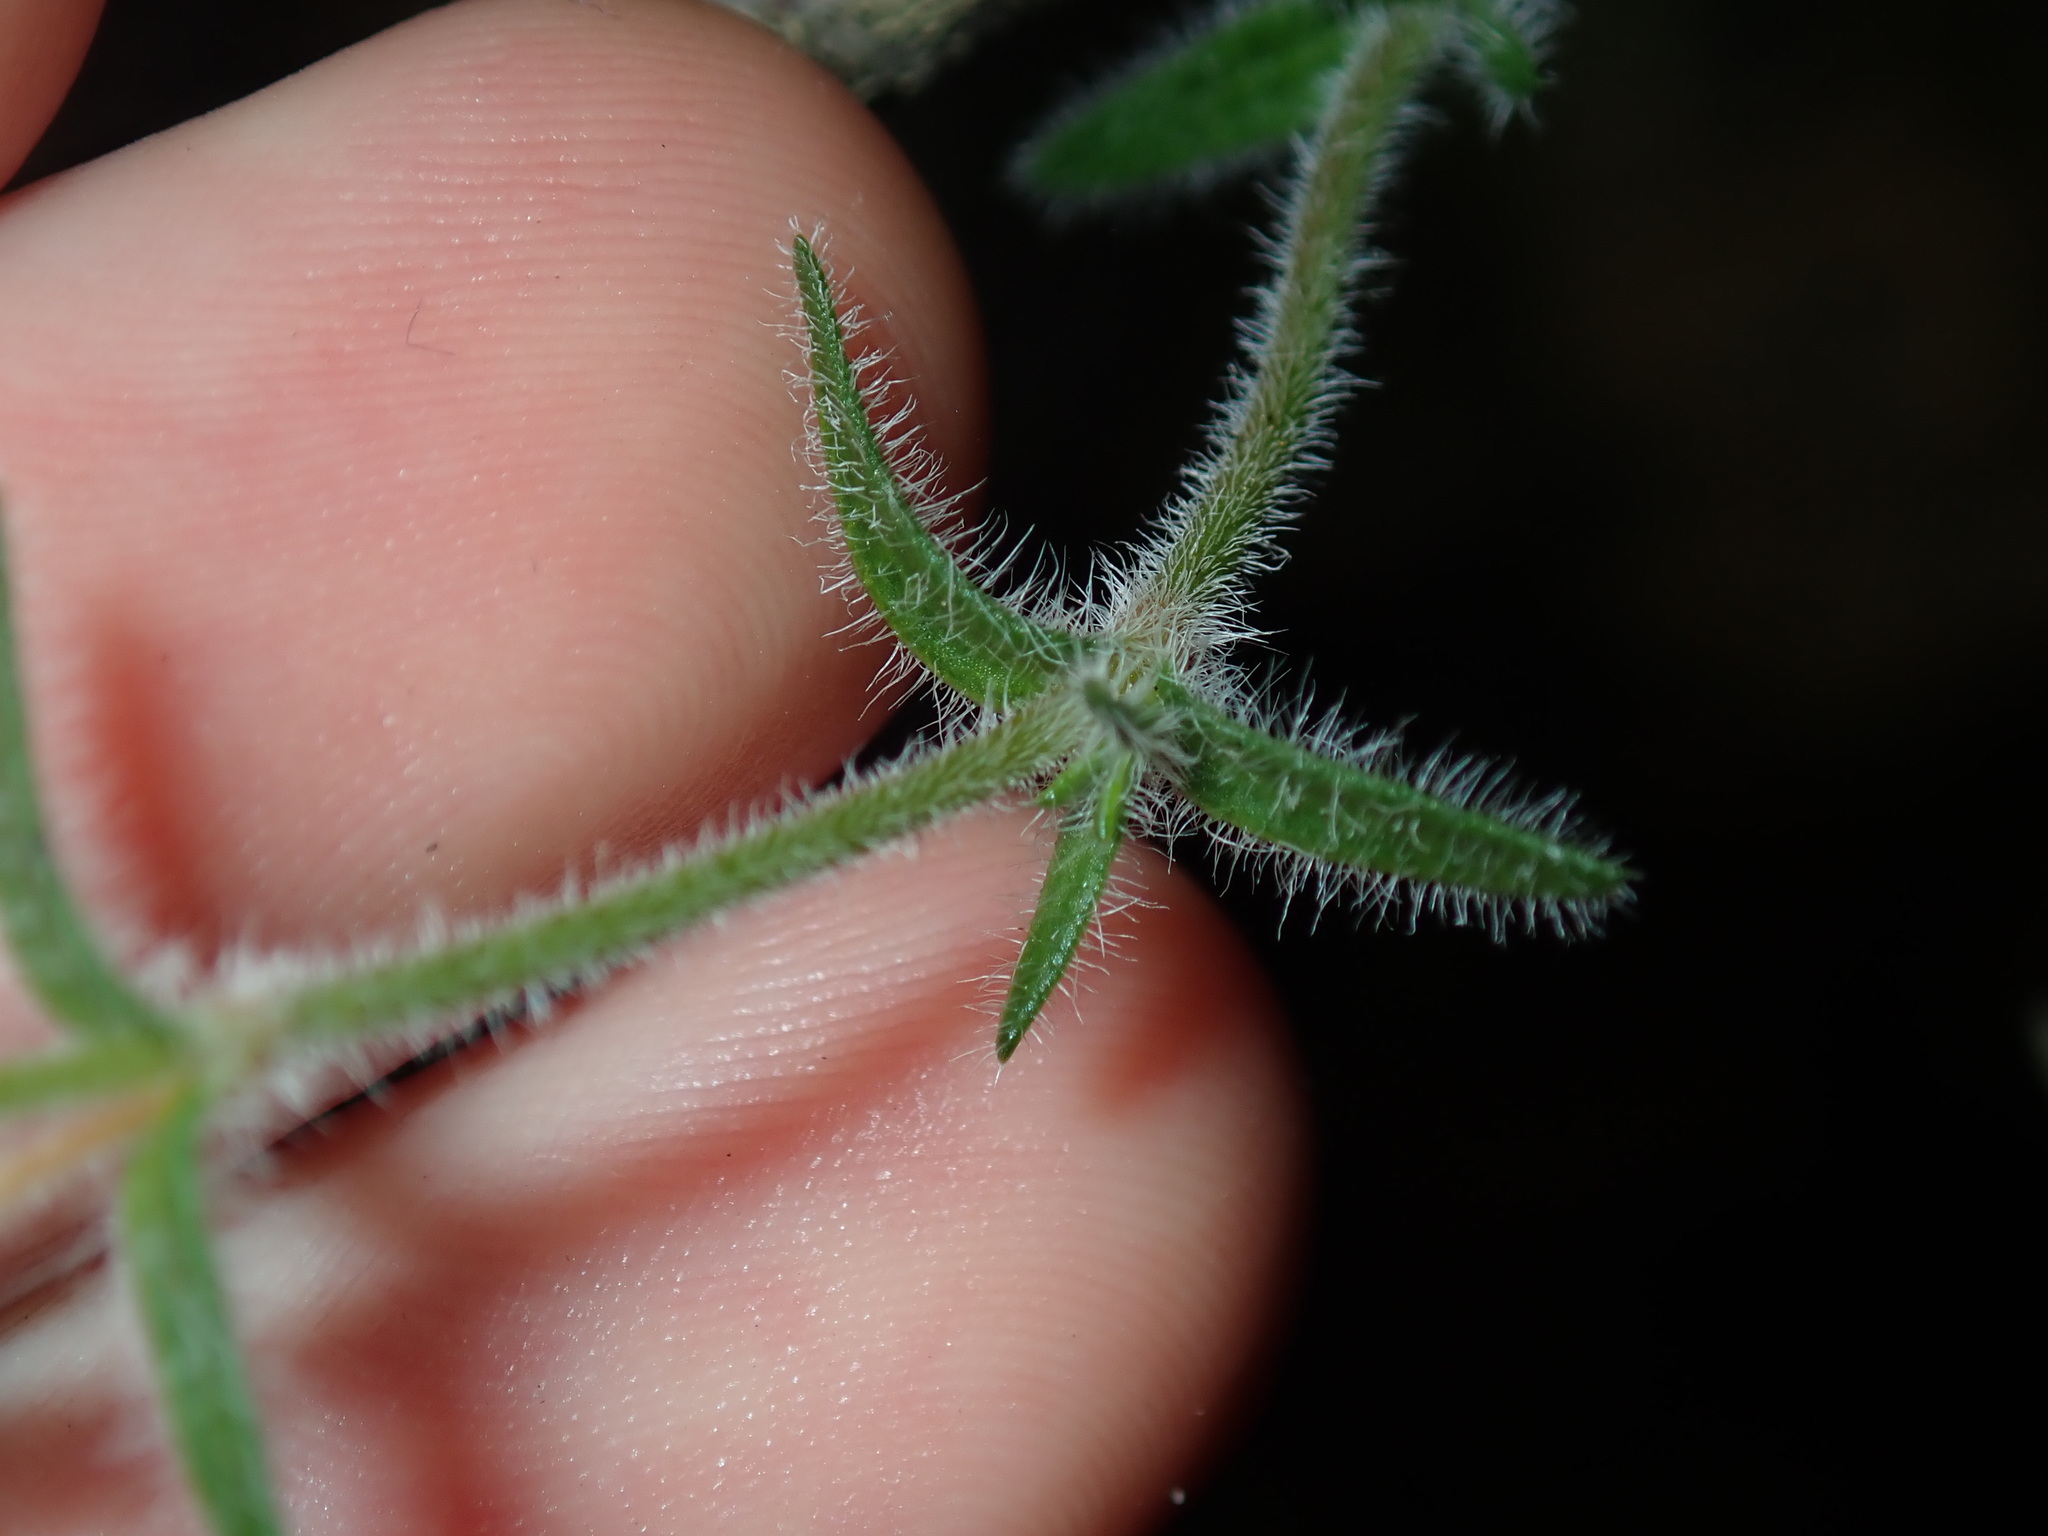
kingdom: Plantae
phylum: Tracheophyta
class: Magnoliopsida
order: Gentianales
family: Loganiaceae
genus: Mitrasacme
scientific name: Mitrasacme polymorpha
